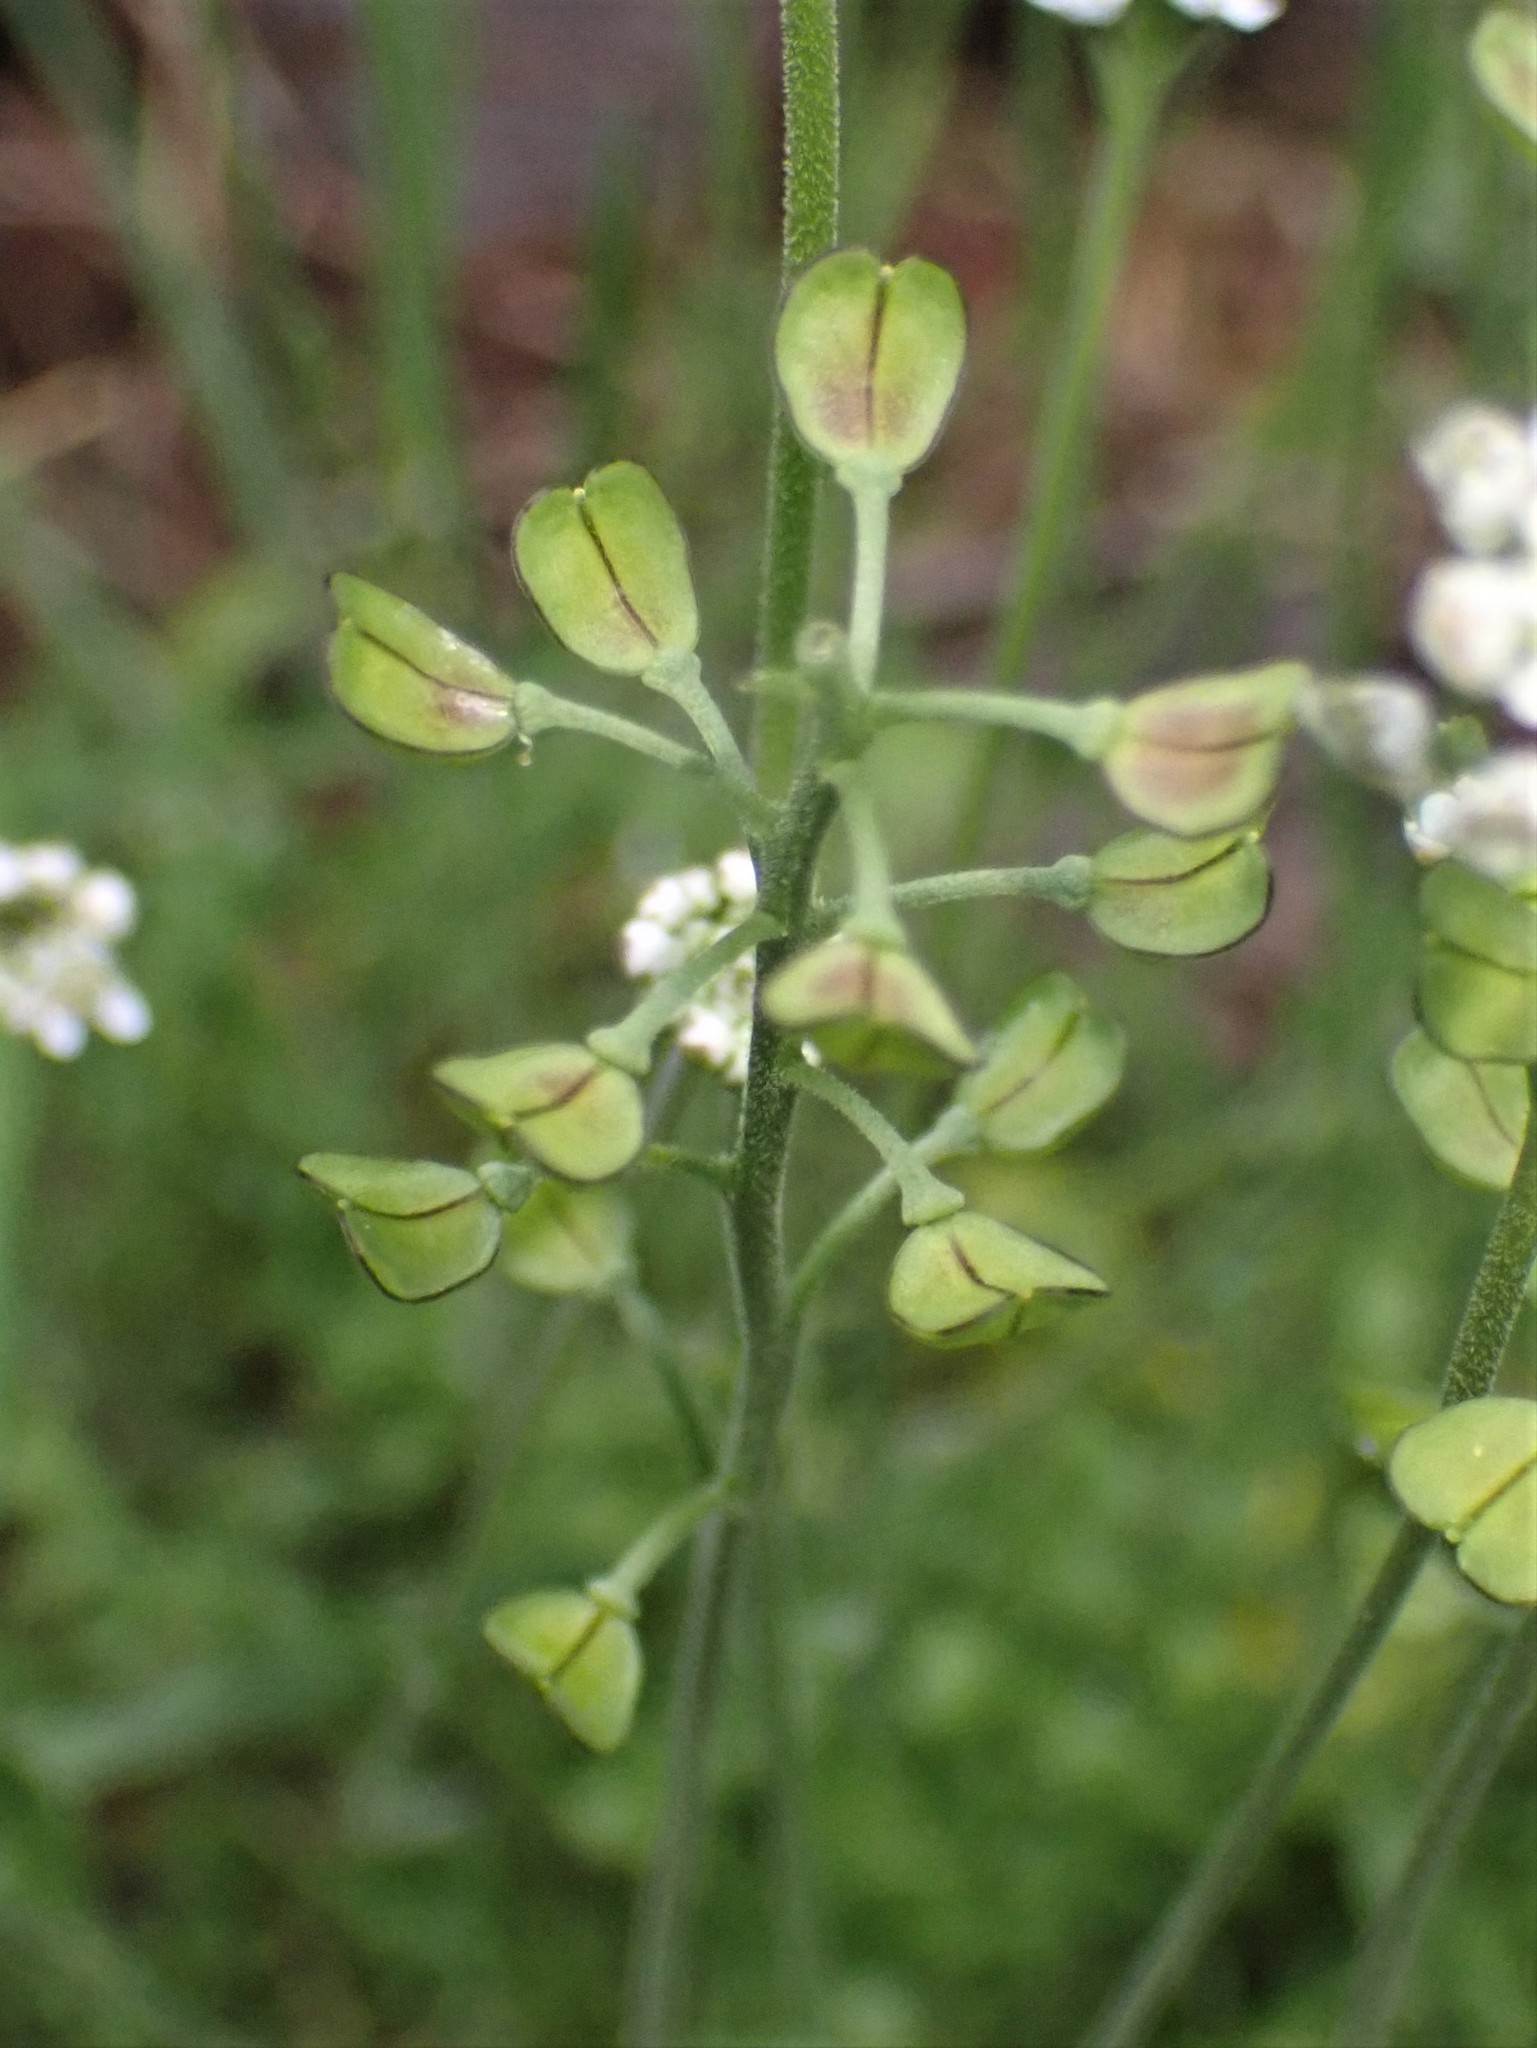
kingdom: Plantae
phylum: Tracheophyta
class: Magnoliopsida
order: Brassicales
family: Brassicaceae
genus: Teesdalia
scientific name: Teesdalia nudicaulis
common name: Shepherd's cress
